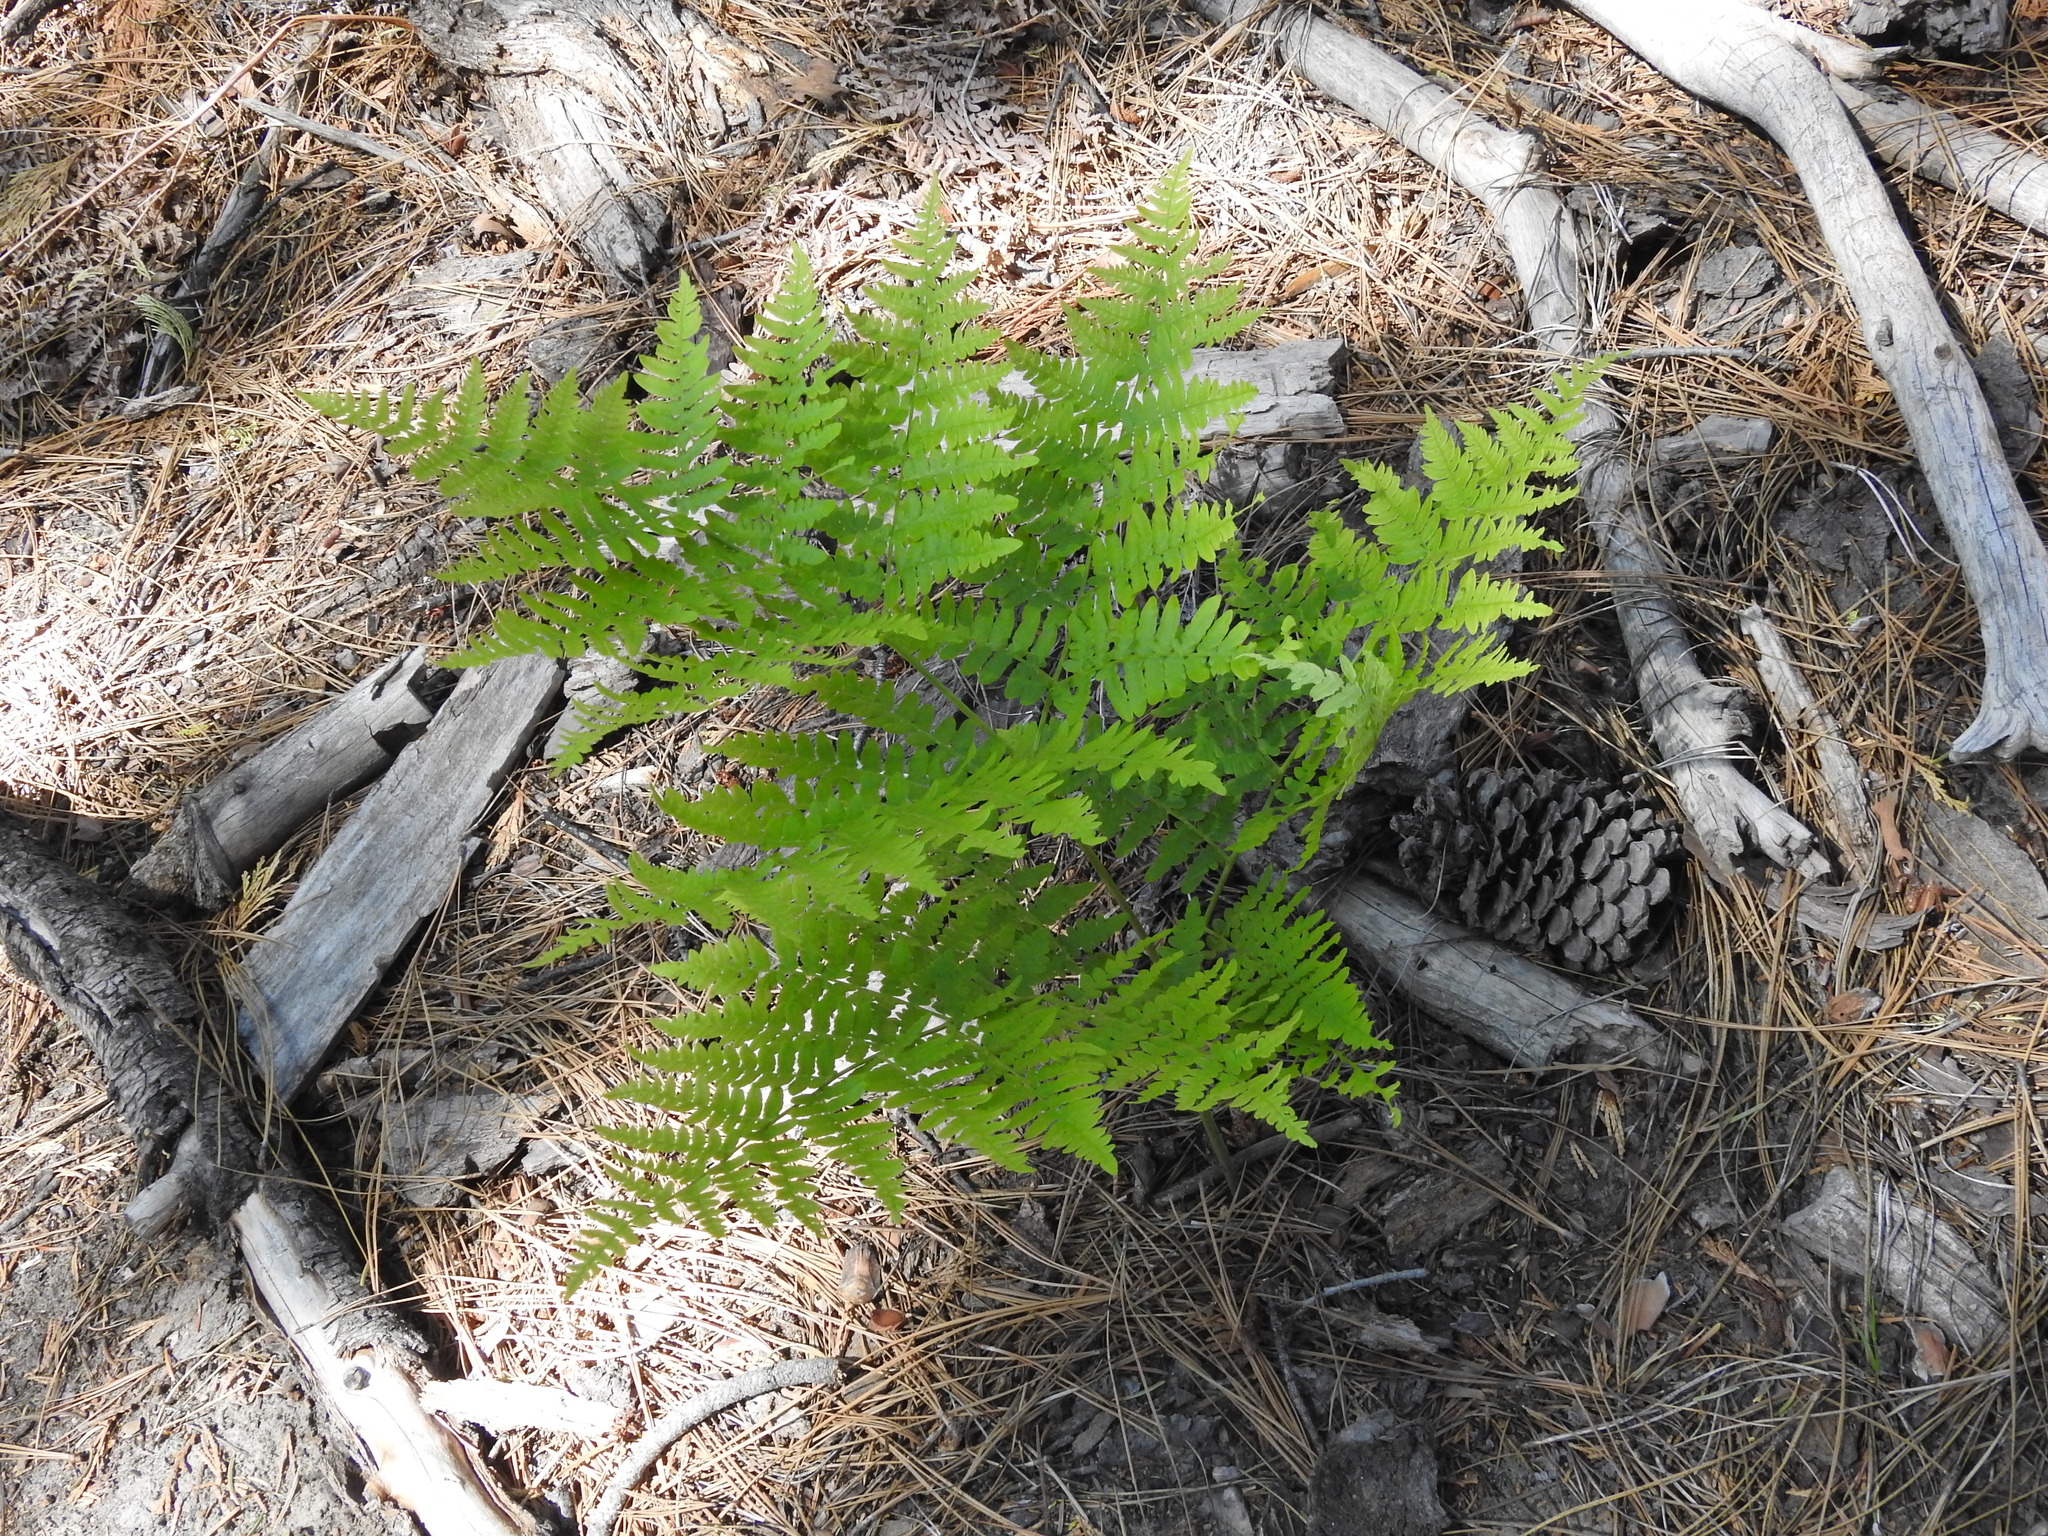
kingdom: Plantae
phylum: Tracheophyta
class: Polypodiopsida
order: Polypodiales
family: Dennstaedtiaceae
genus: Pteridium
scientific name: Pteridium aquilinum
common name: Bracken
